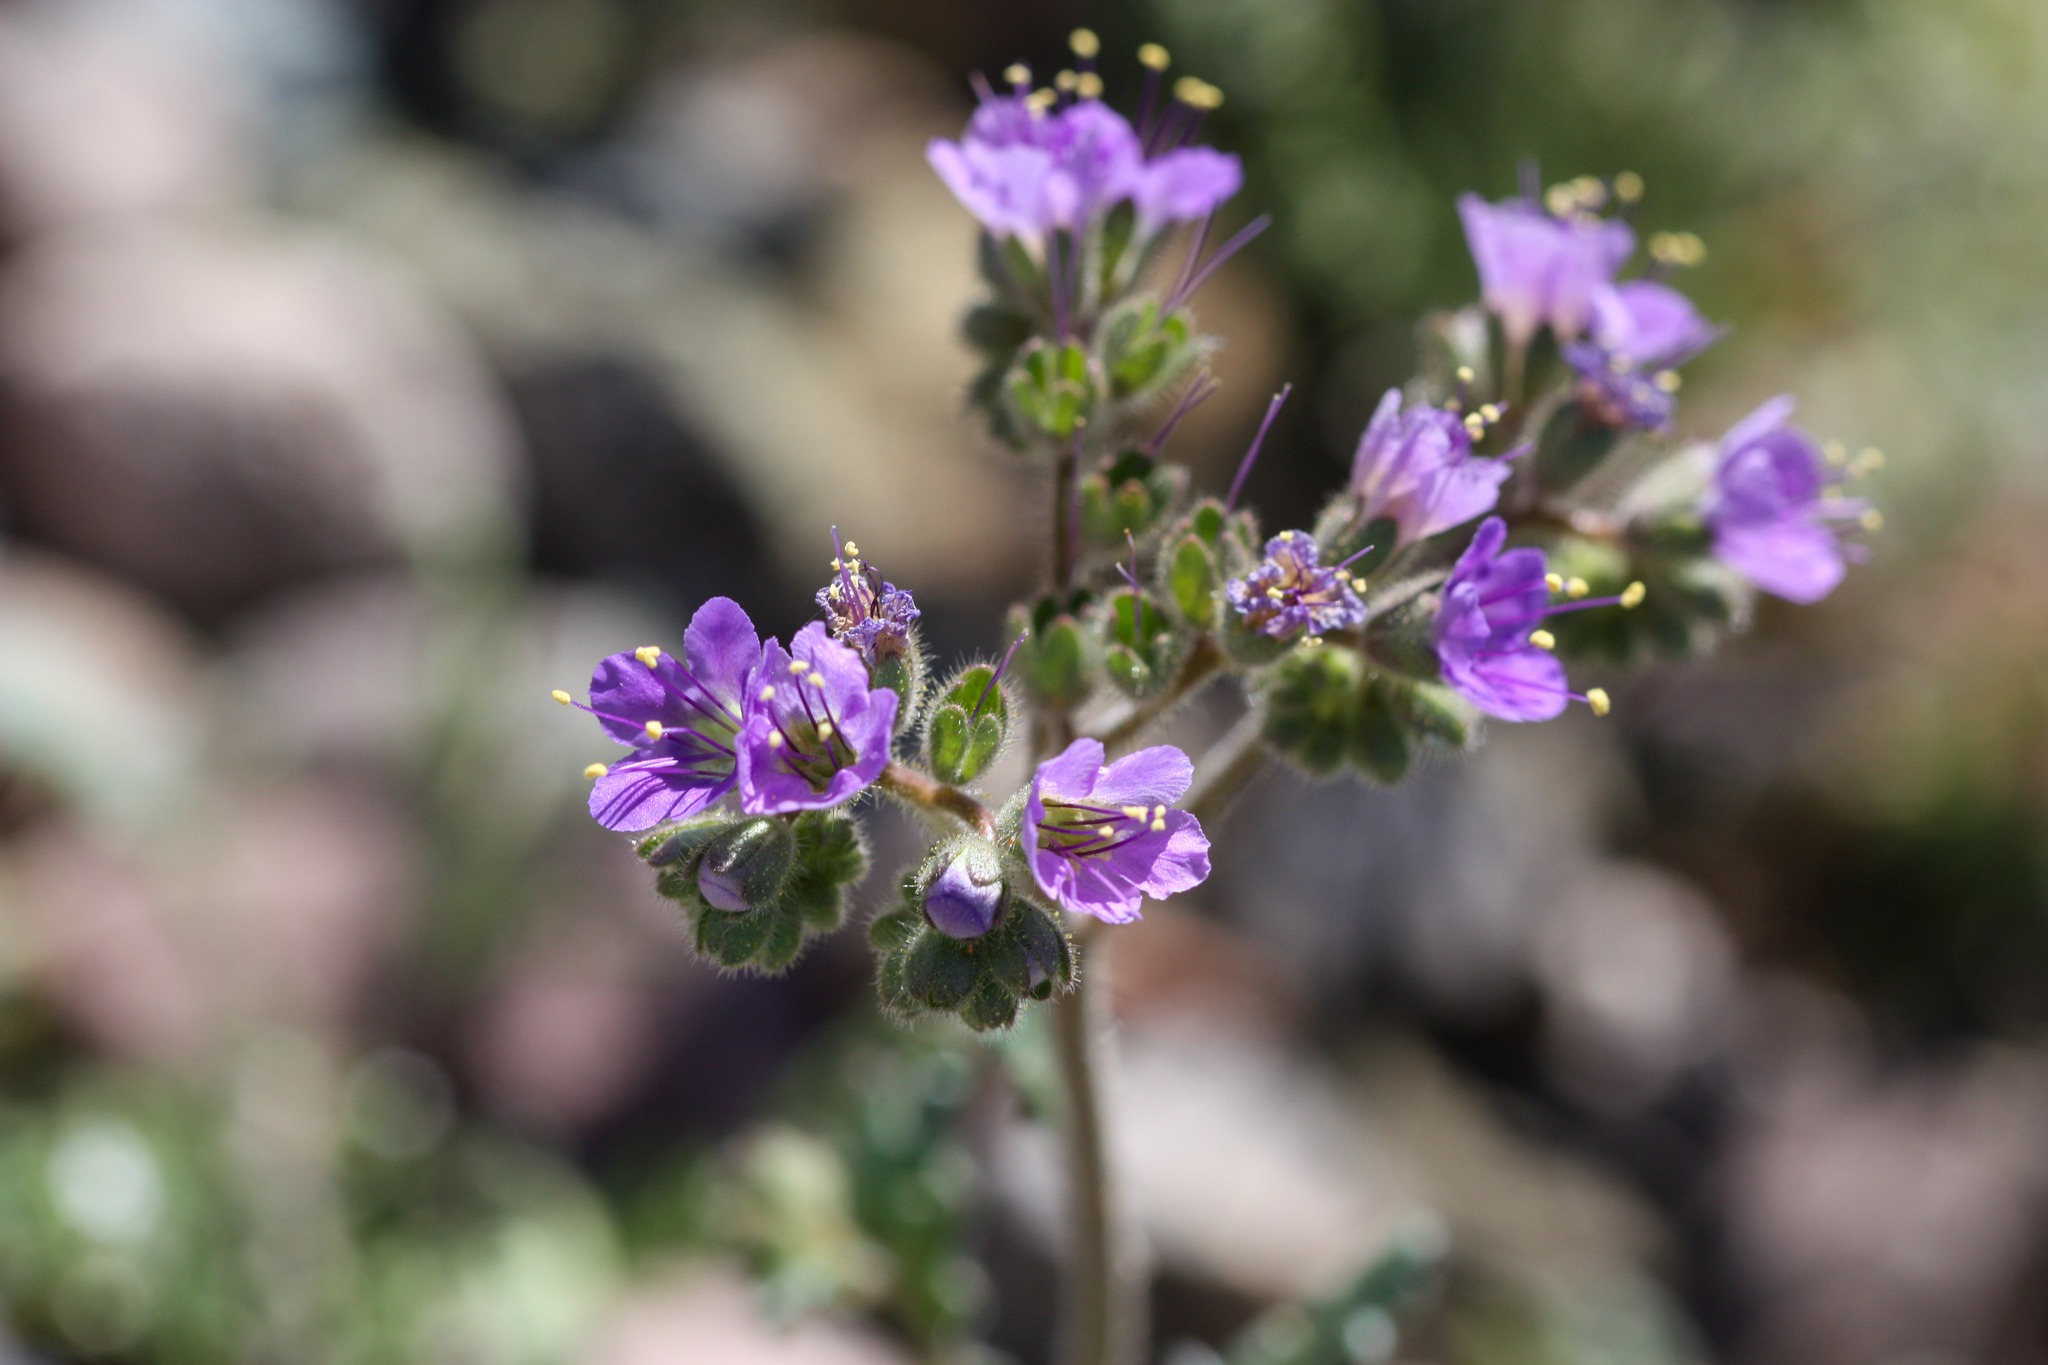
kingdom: Plantae
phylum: Tracheophyta
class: Magnoliopsida
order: Boraginales
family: Hydrophyllaceae
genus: Phacelia
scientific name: Phacelia crenulata
